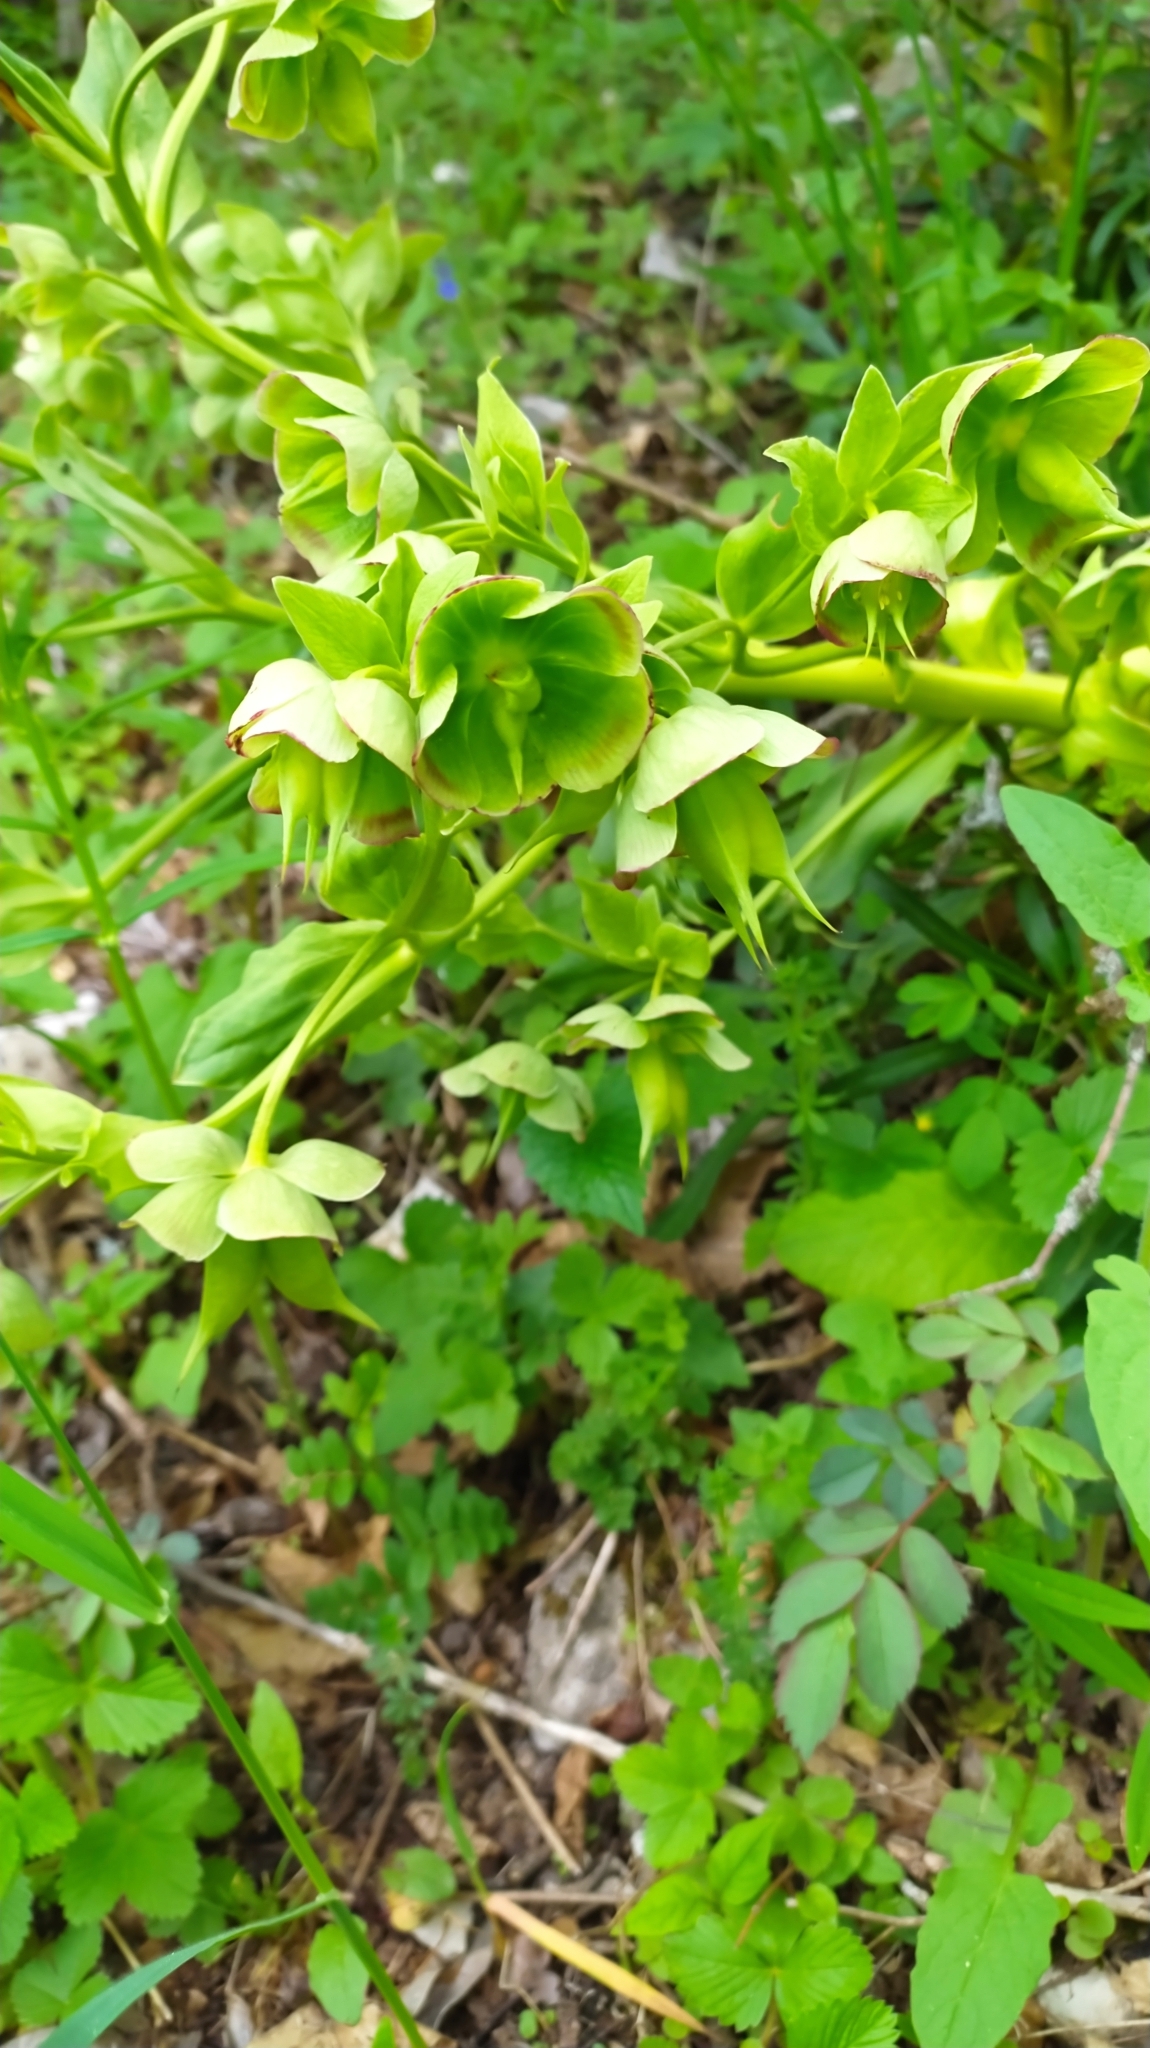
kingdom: Plantae
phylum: Tracheophyta
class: Magnoliopsida
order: Ranunculales
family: Ranunculaceae
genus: Helleborus
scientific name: Helleborus foetidus
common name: Stinking hellebore
